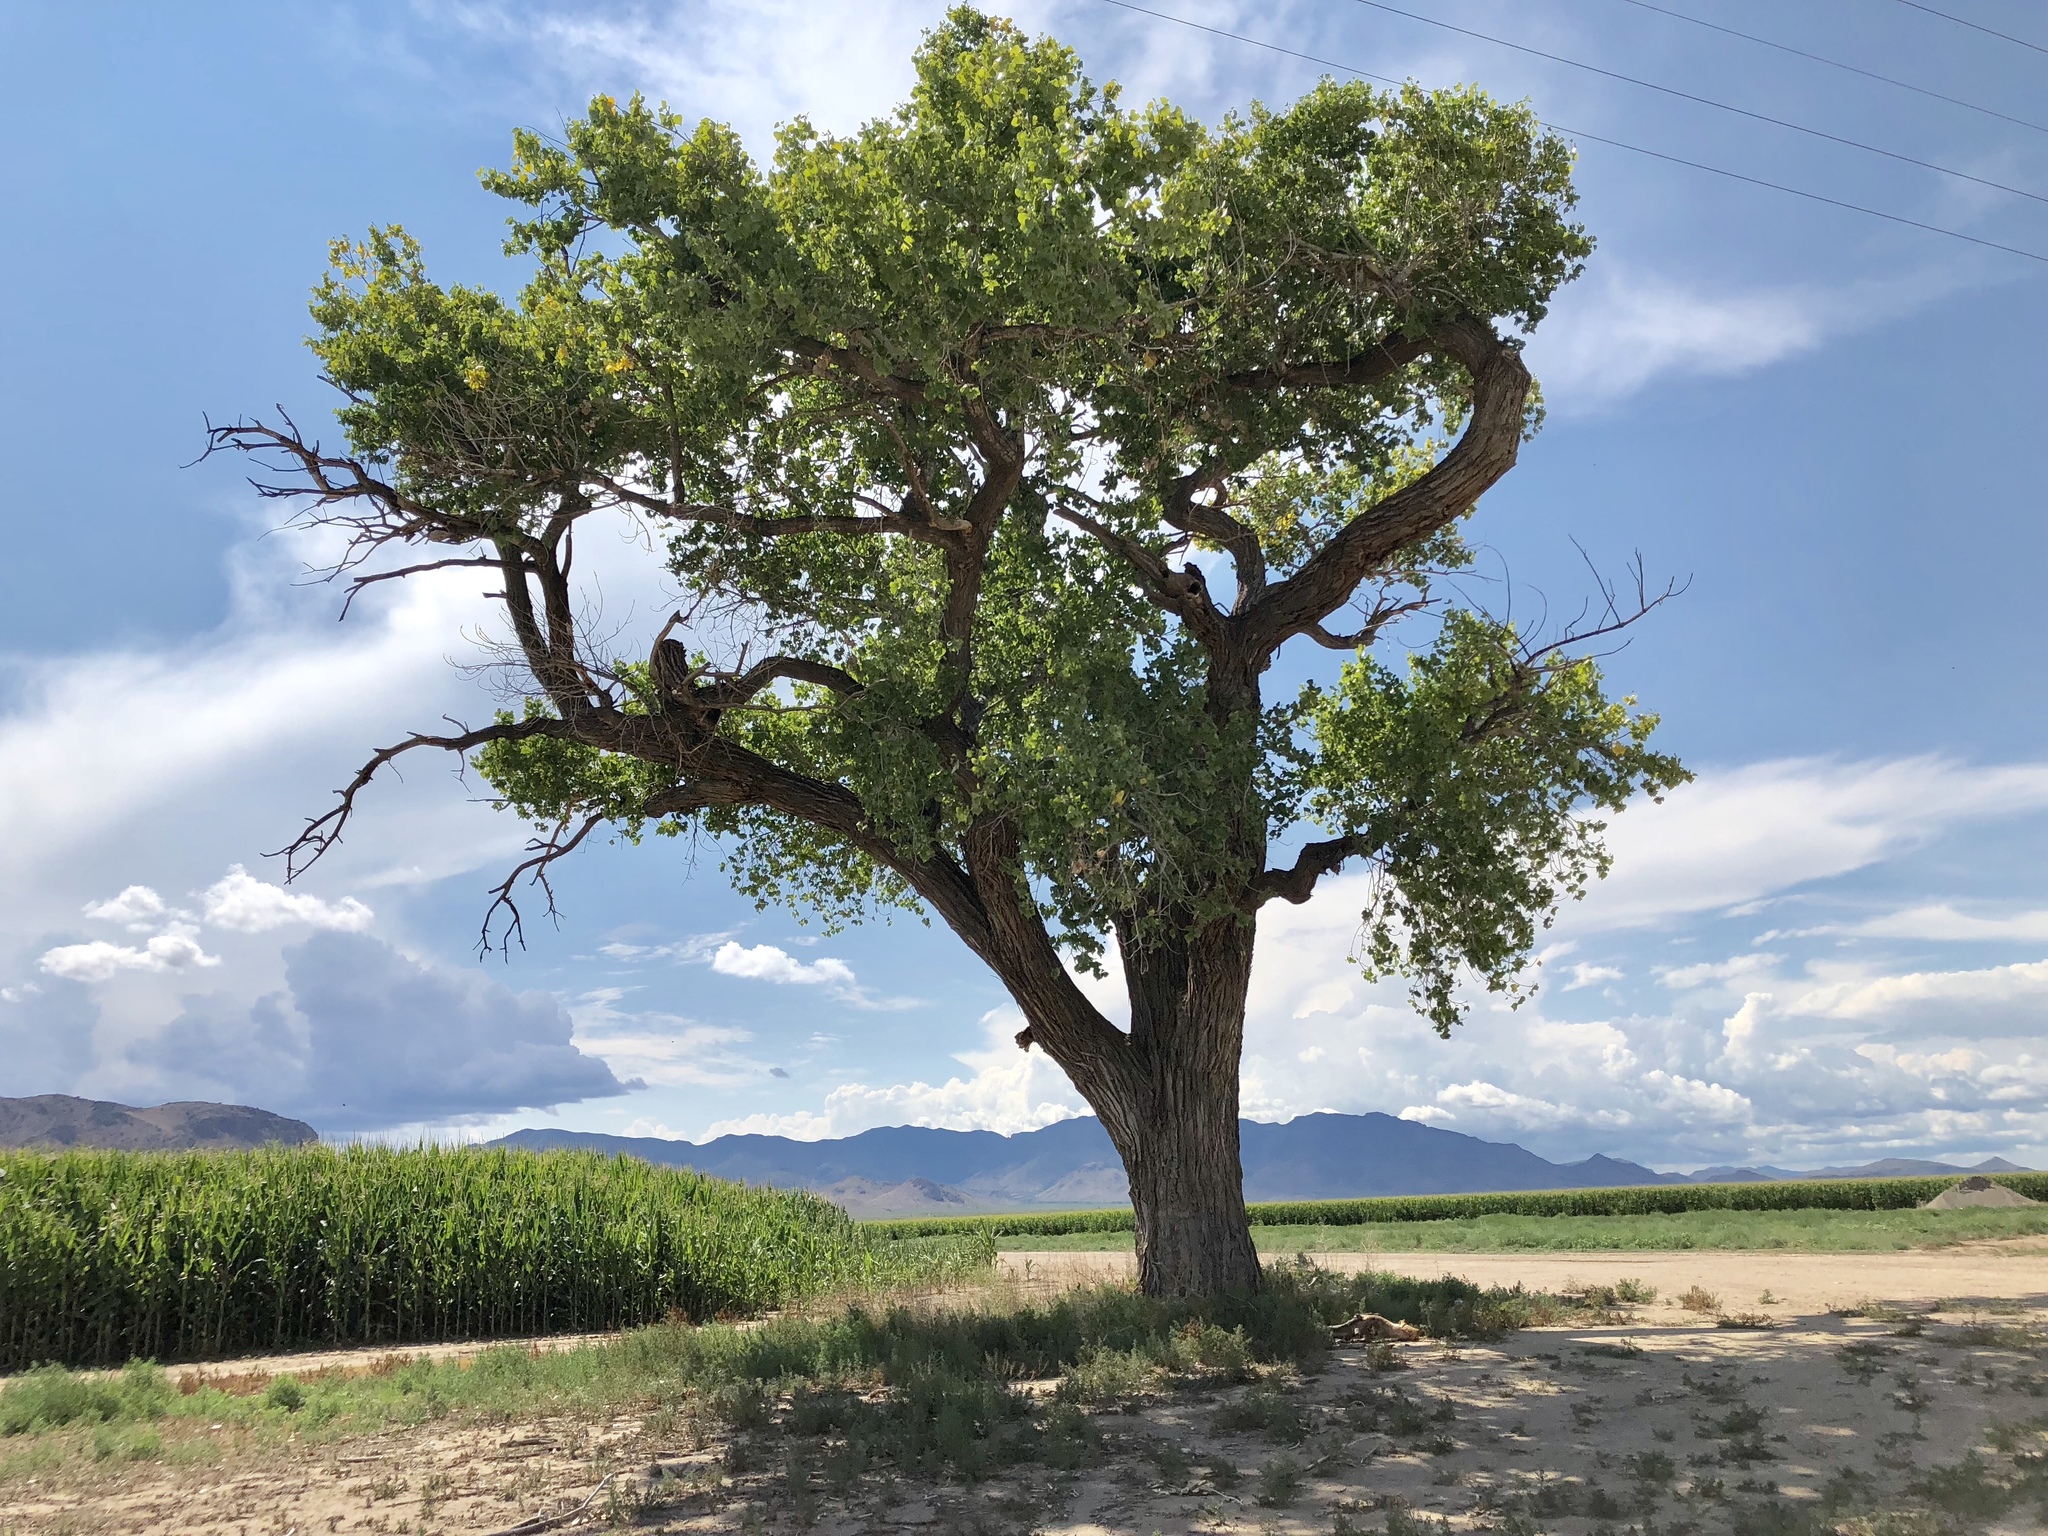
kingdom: Plantae
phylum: Tracheophyta
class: Magnoliopsida
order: Malpighiales
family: Salicaceae
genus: Populus
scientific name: Populus fremontii
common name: Fremont's cottonwood
